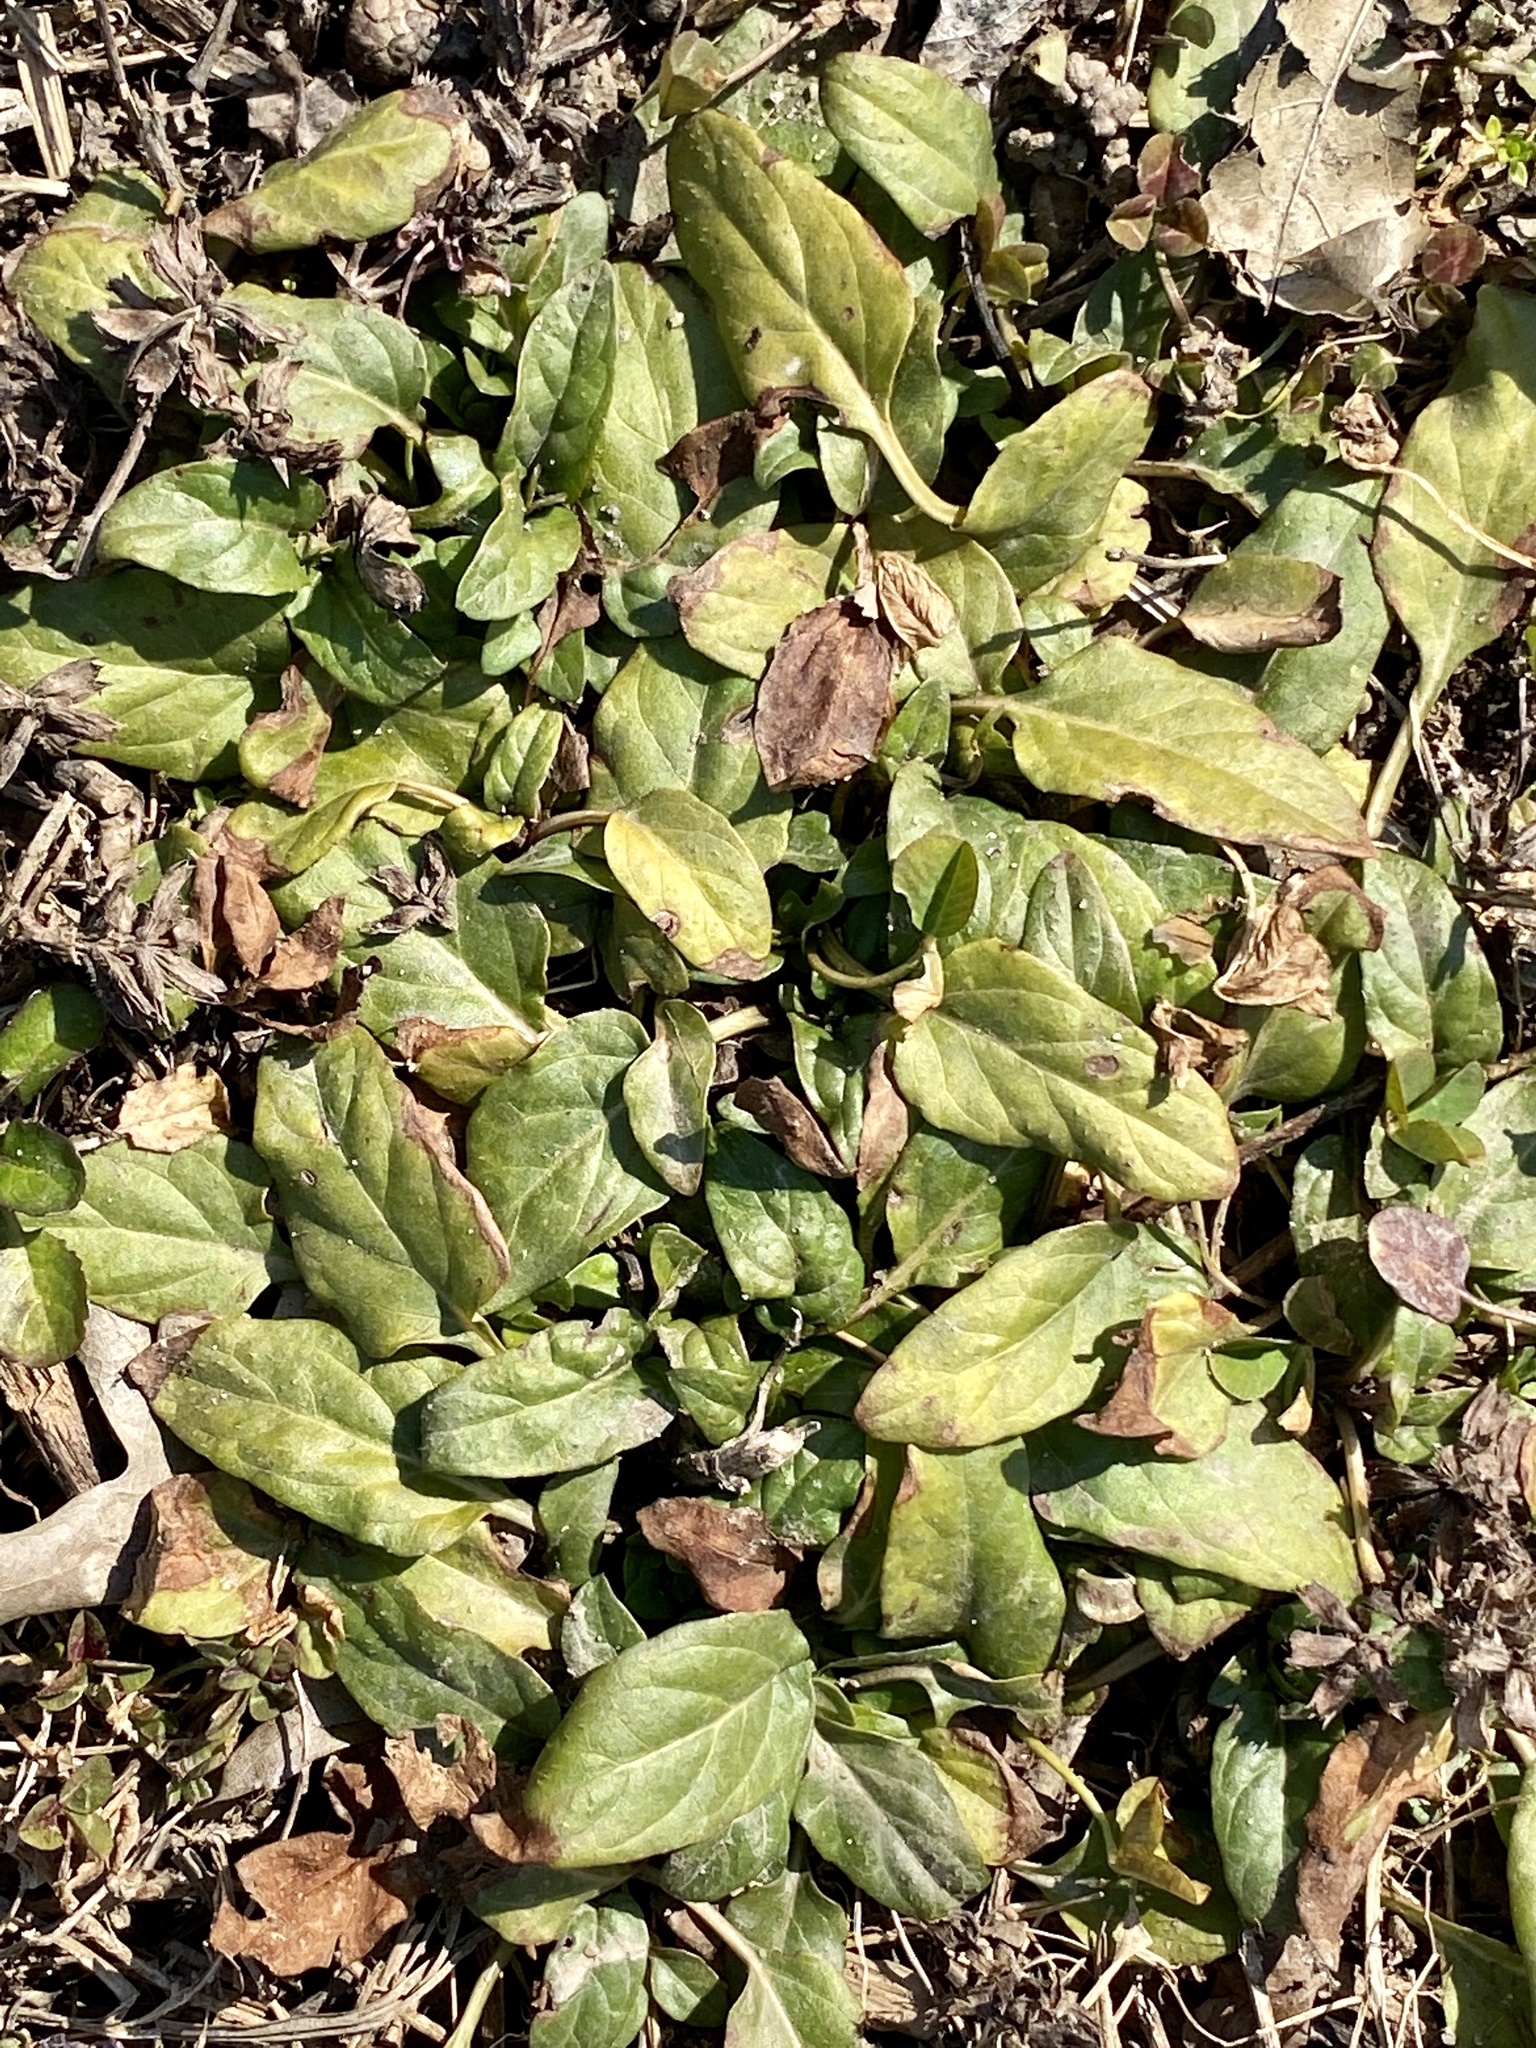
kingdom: Plantae
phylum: Tracheophyta
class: Magnoliopsida
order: Lamiales
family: Lamiaceae
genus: Prunella
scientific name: Prunella vulgaris
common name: Heal-all
